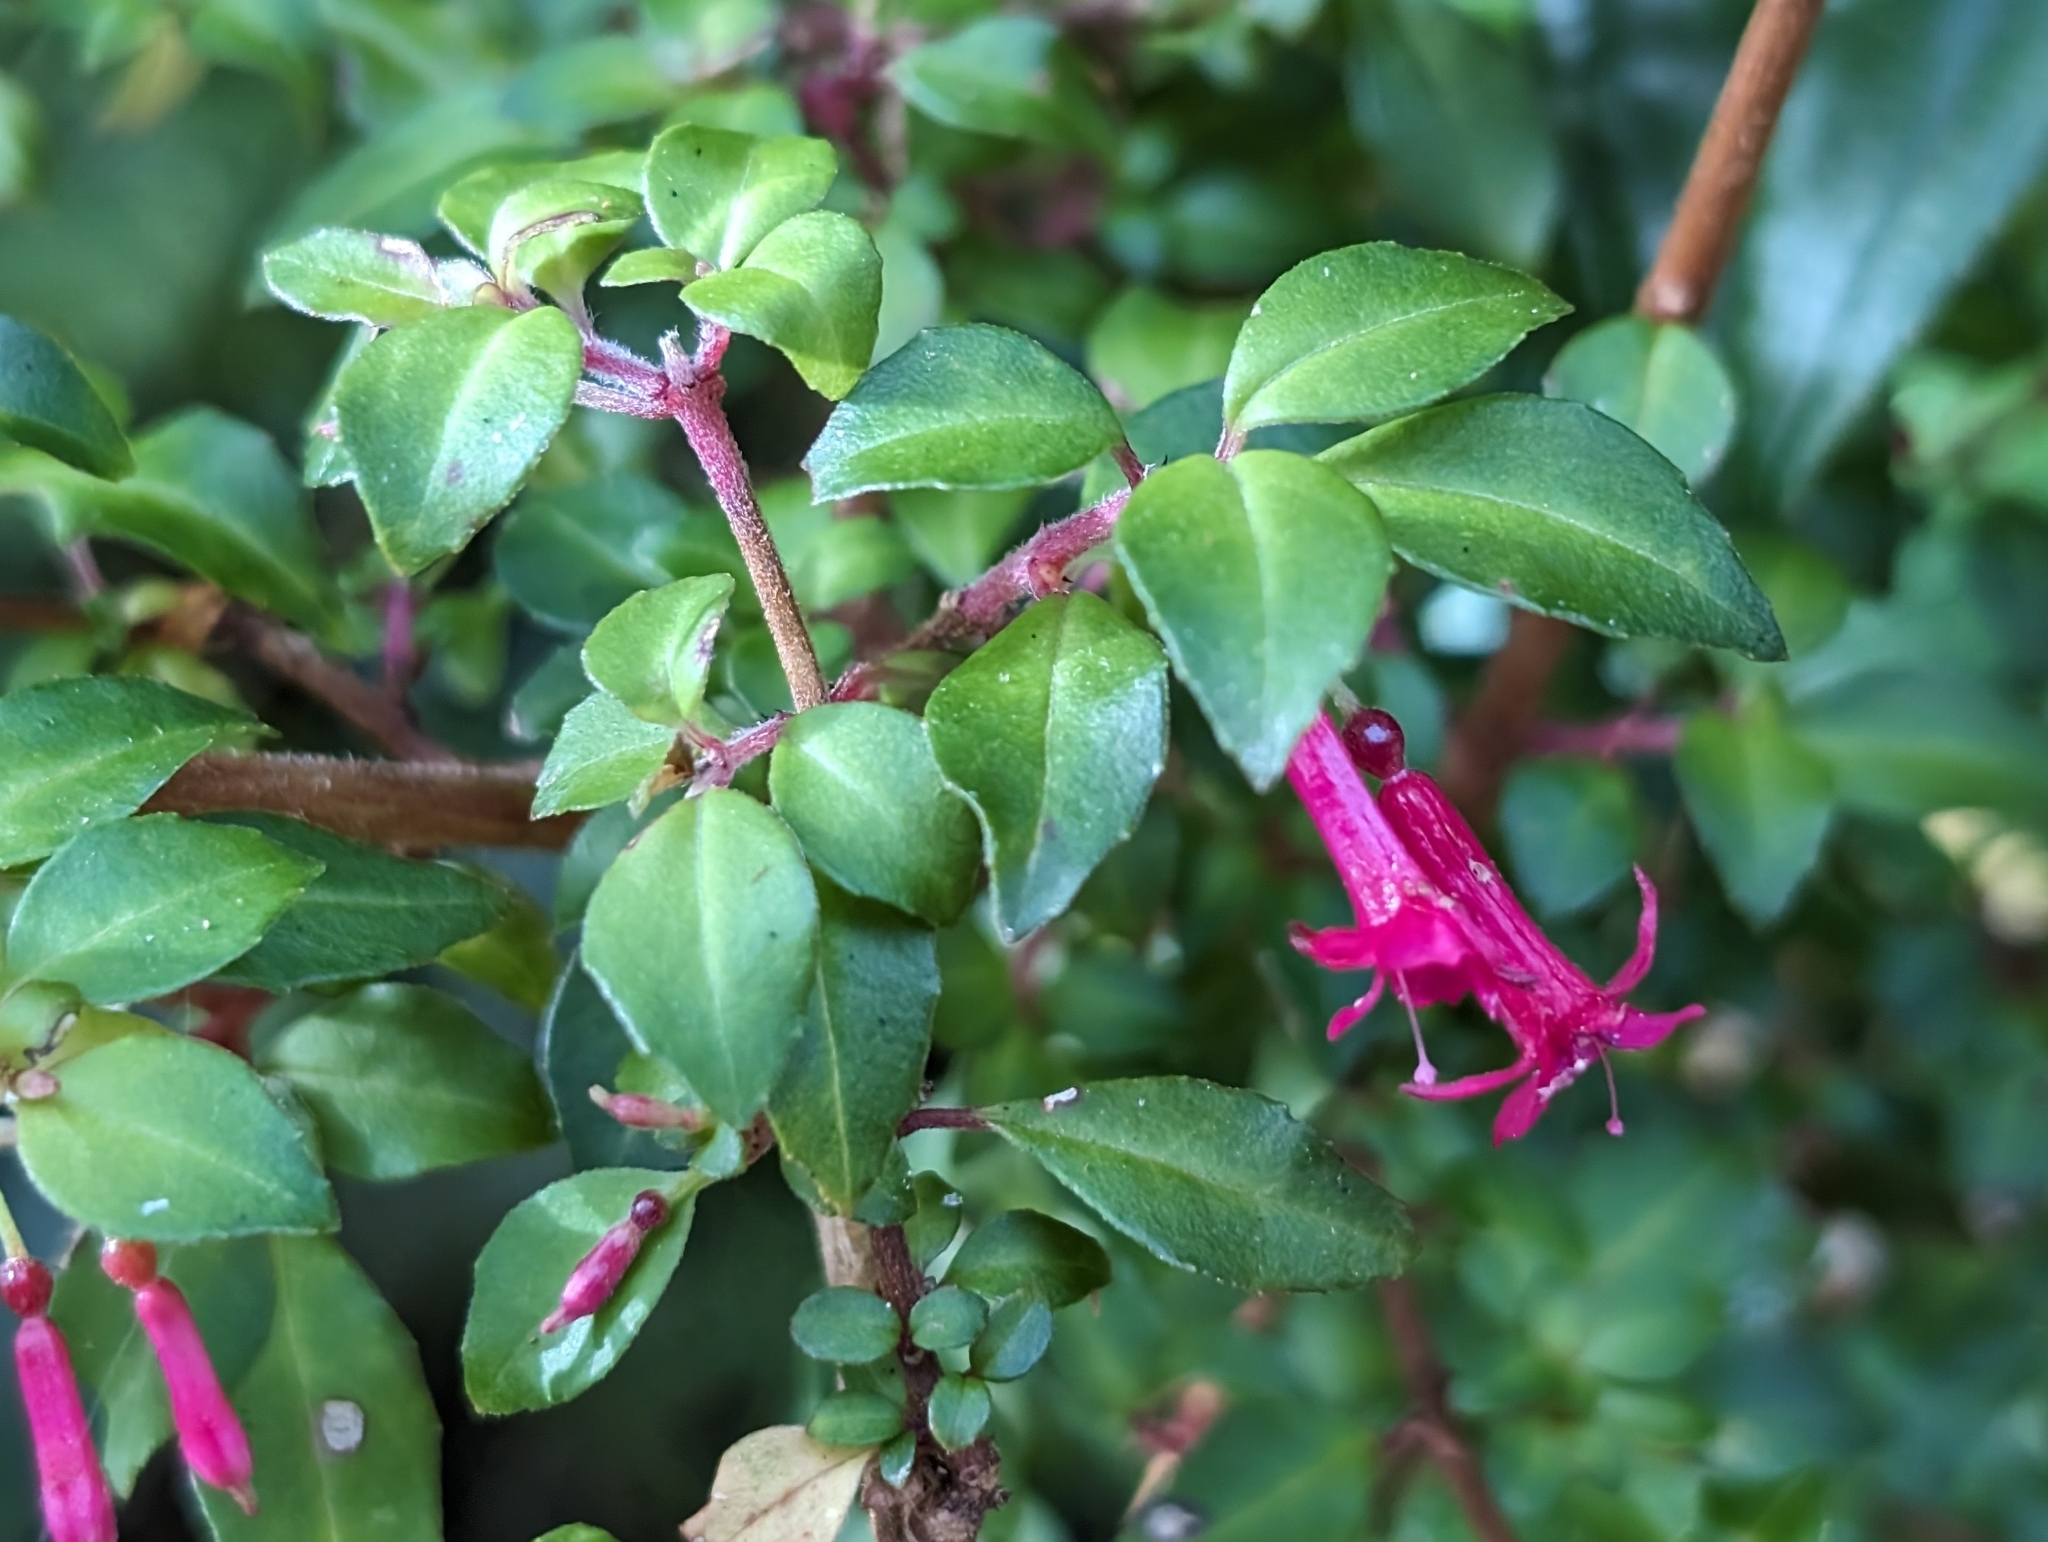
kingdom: Plantae
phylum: Tracheophyta
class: Magnoliopsida
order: Myrtales
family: Onagraceae
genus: Fuchsia
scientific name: Fuchsia microphylla
